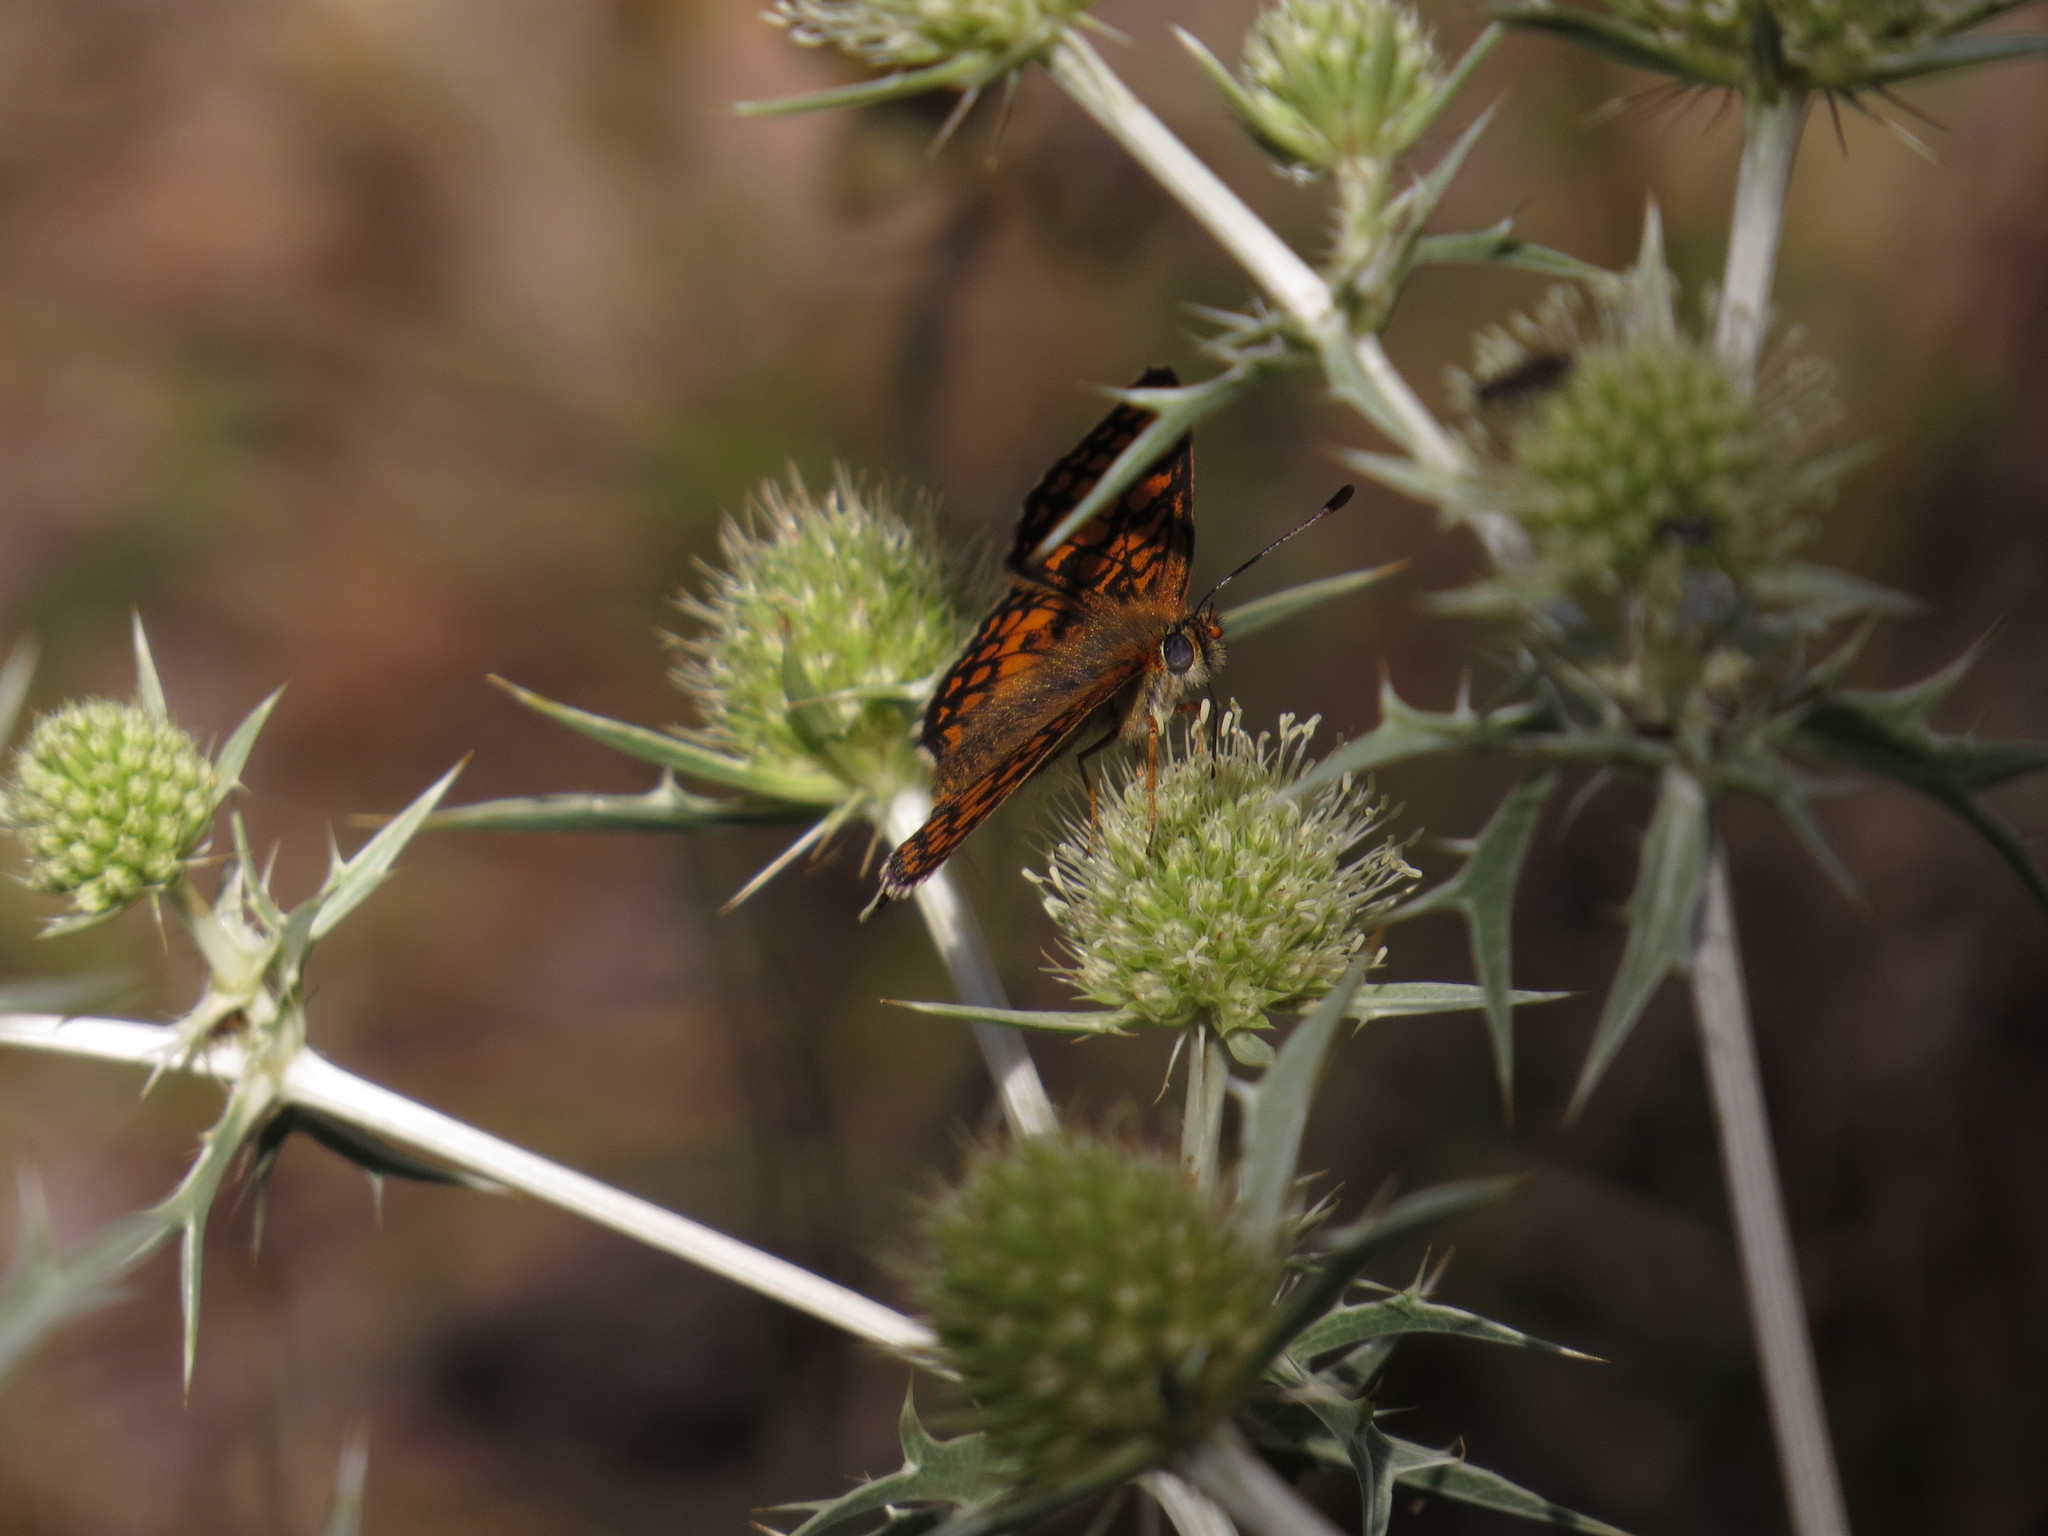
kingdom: Animalia
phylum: Arthropoda
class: Insecta
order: Lepidoptera
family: Nymphalidae
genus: Mellicta
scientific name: Mellicta athalia
